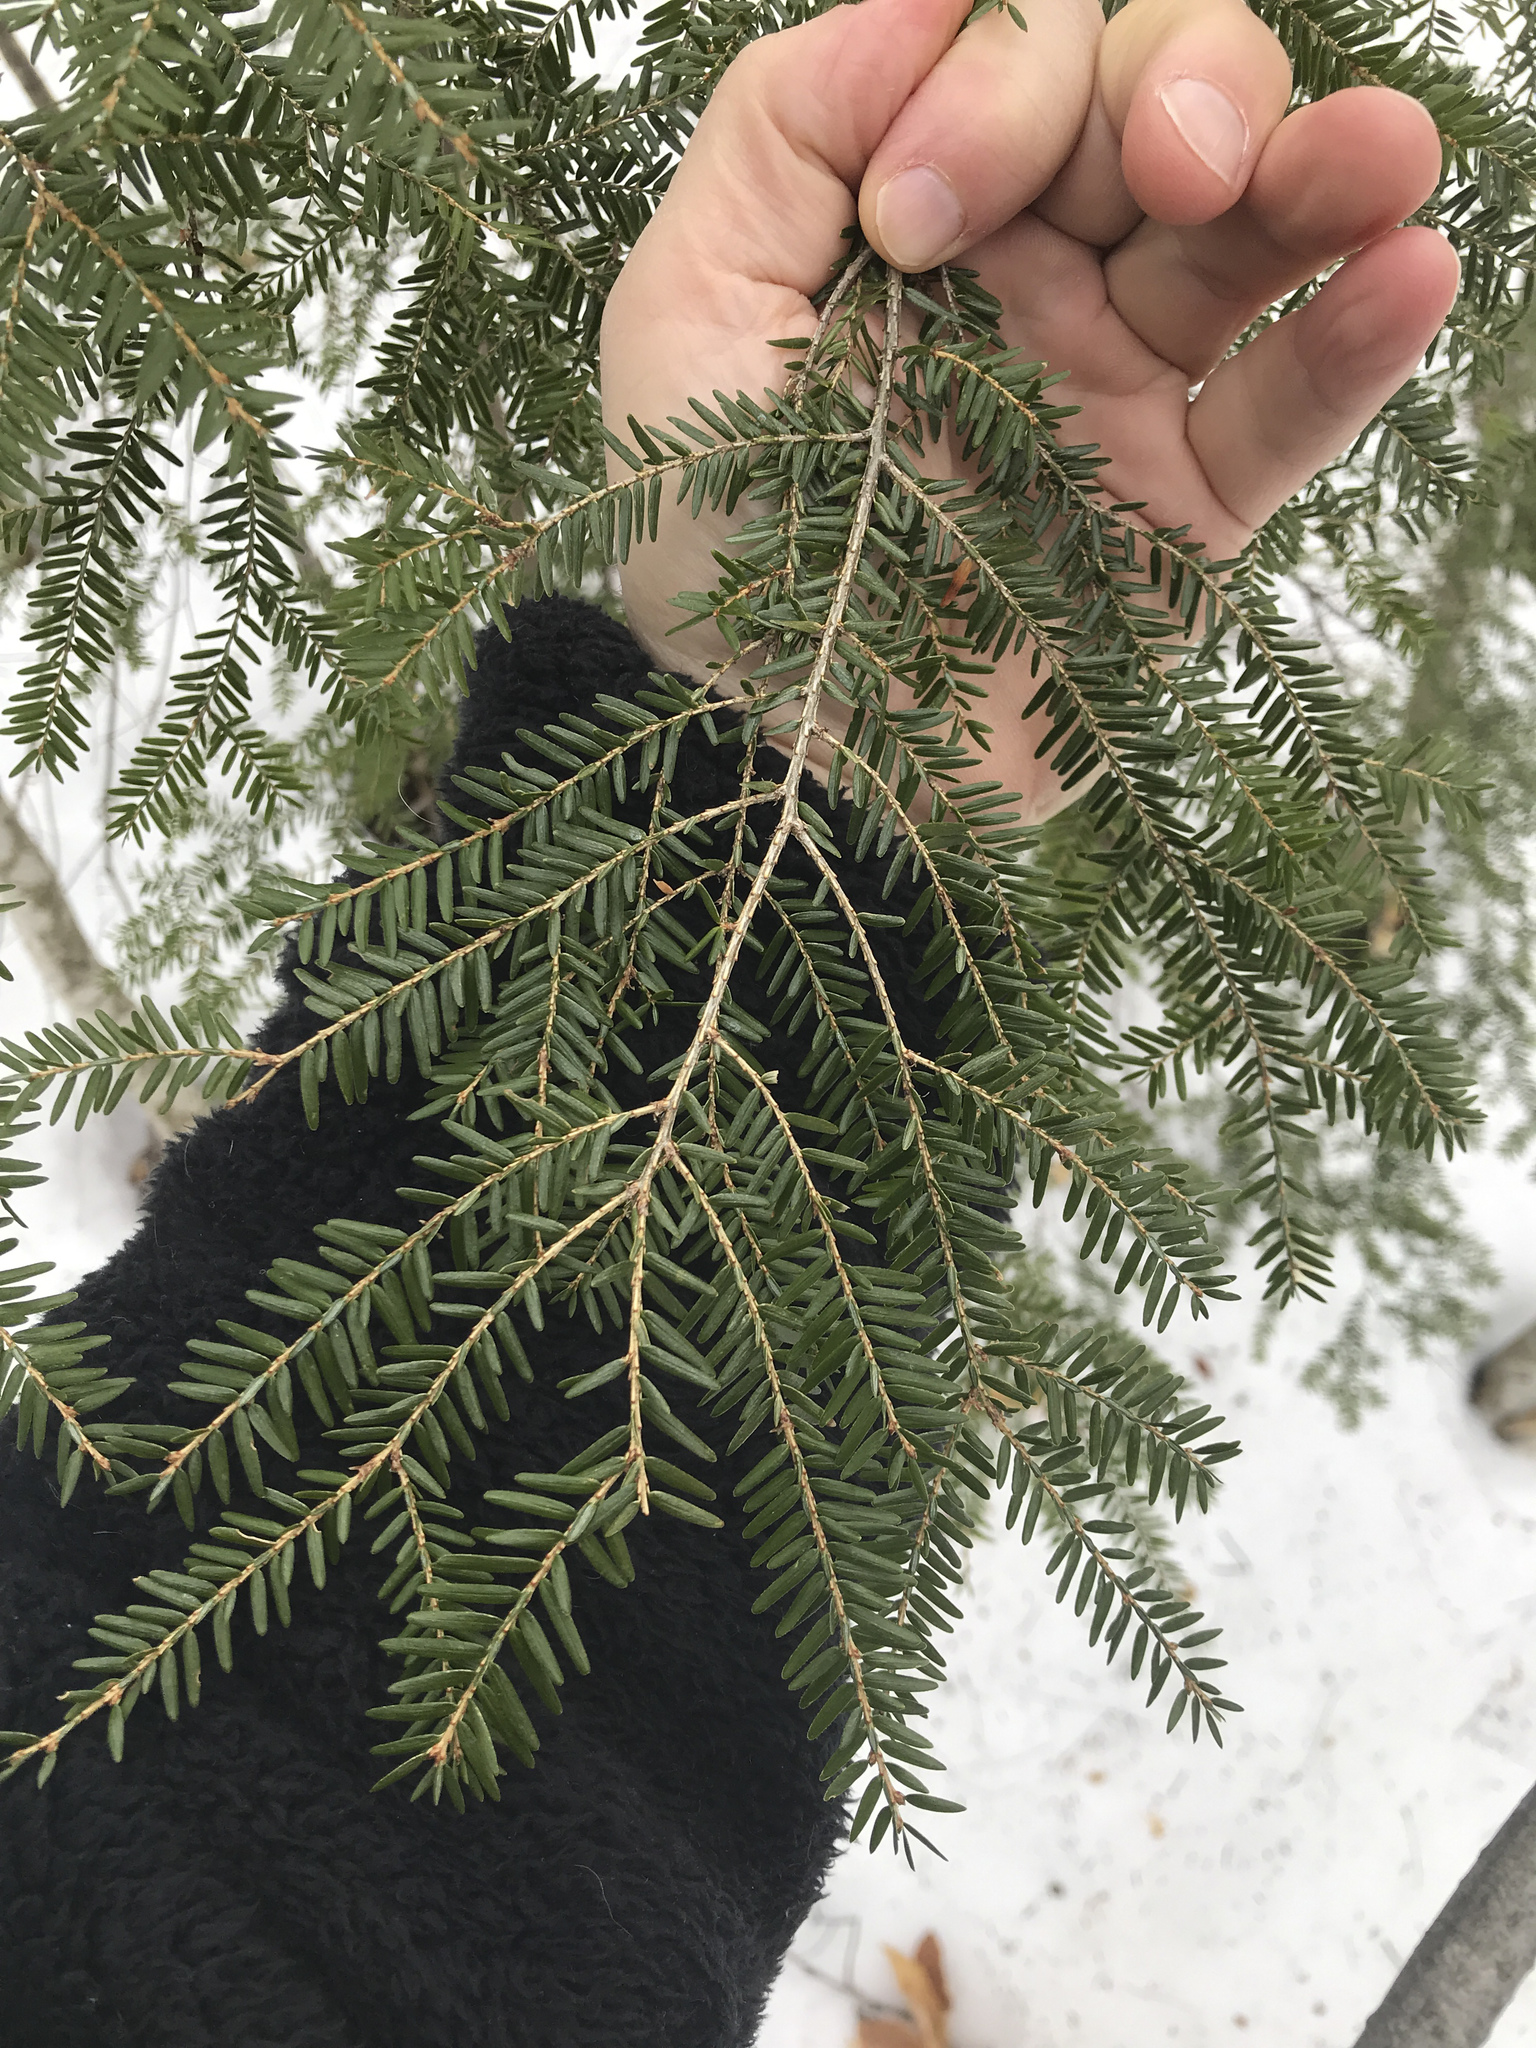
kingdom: Plantae
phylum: Tracheophyta
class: Pinopsida
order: Pinales
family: Pinaceae
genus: Tsuga
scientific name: Tsuga canadensis
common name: Eastern hemlock
